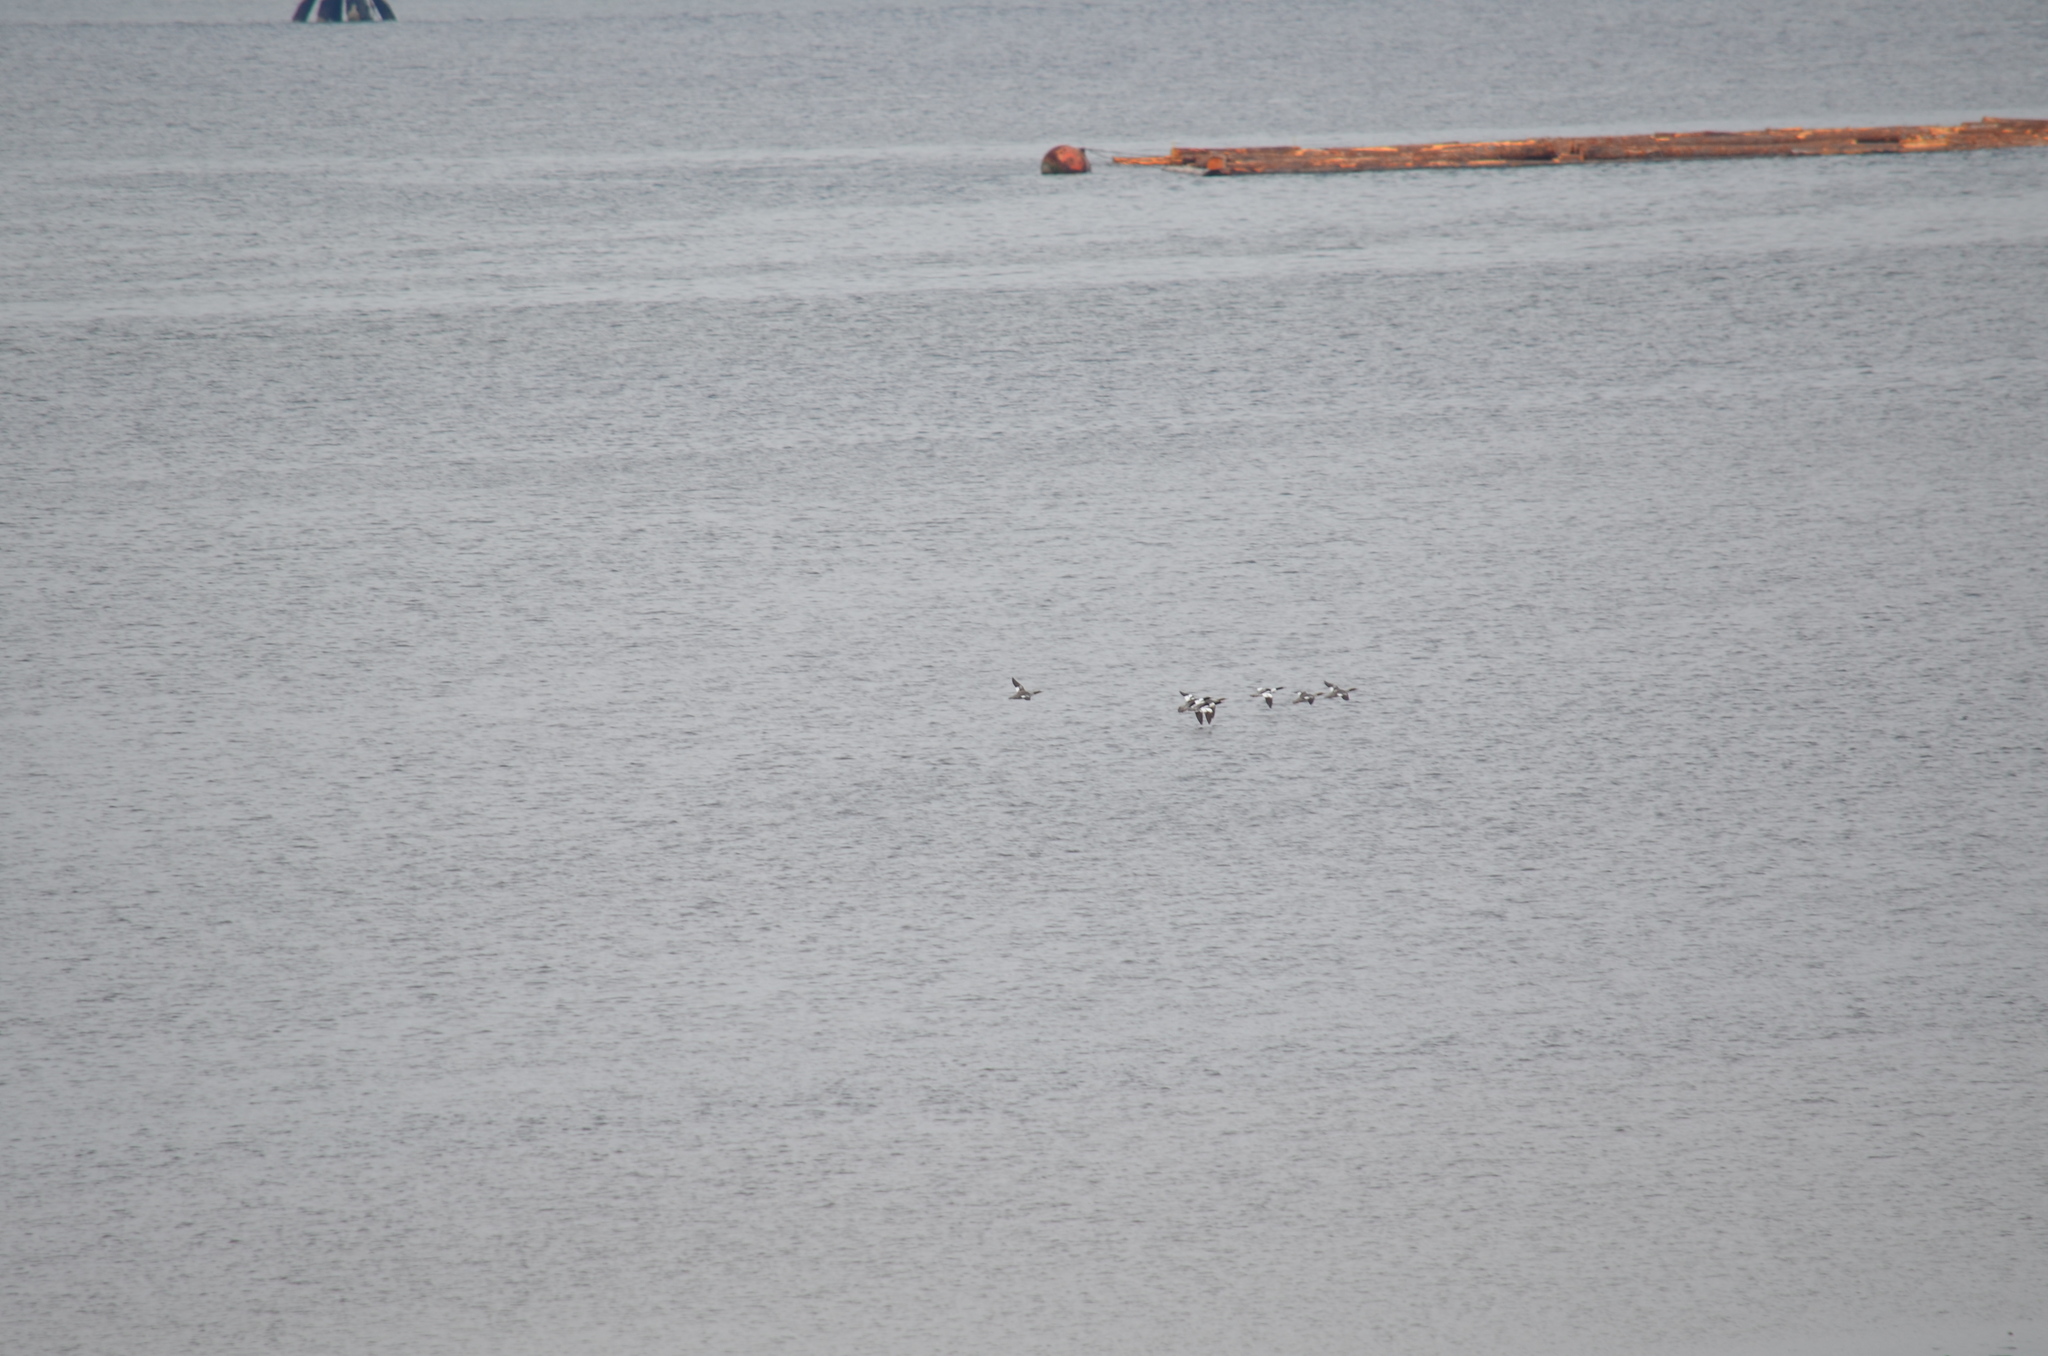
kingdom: Animalia
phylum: Chordata
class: Aves
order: Anseriformes
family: Anatidae
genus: Mergus
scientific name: Mergus merganser
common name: Common merganser
